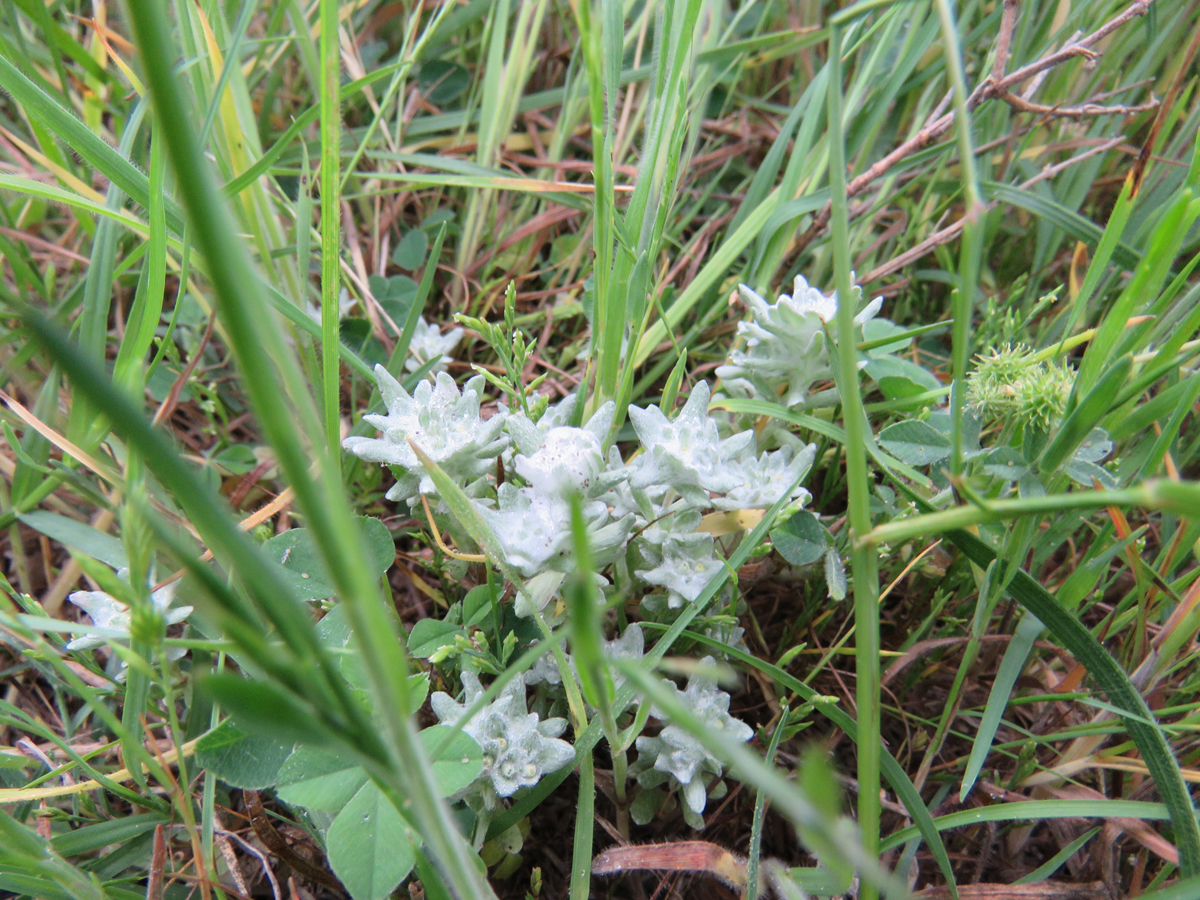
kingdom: Plantae
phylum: Tracheophyta
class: Magnoliopsida
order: Asterales
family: Asteraceae
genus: Diaperia
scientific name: Diaperia prolifera
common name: Big-head rabbit-tobacco
